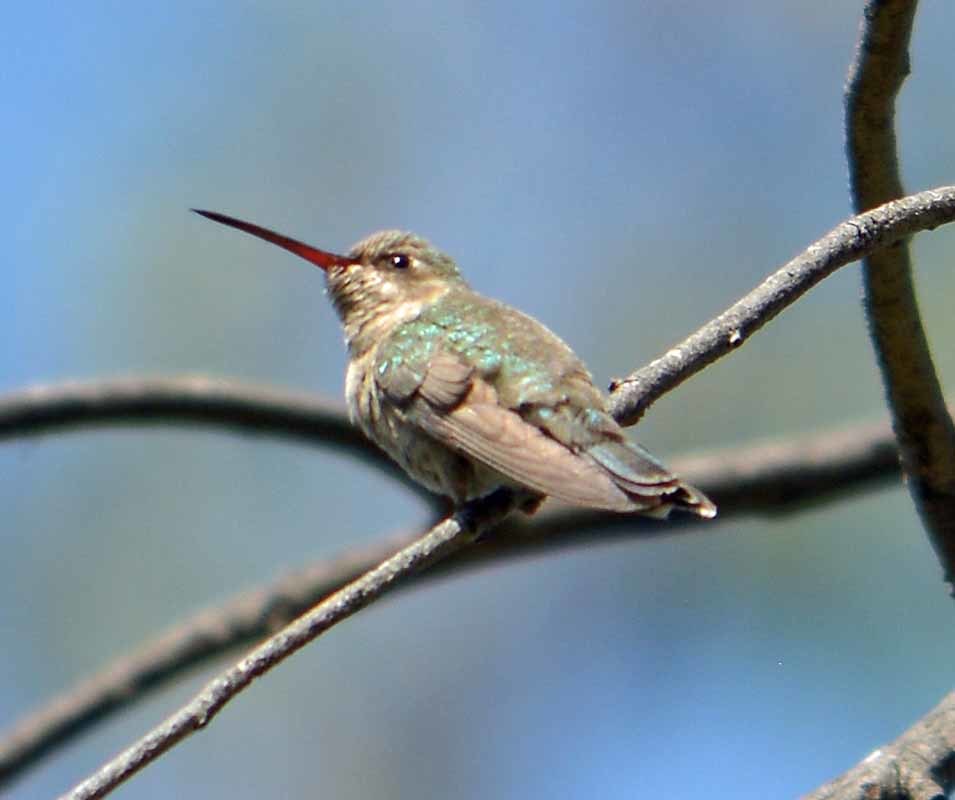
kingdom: Animalia
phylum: Chordata
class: Aves
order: Apodiformes
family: Trochilidae
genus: Cynanthus
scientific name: Cynanthus latirostris
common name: Broad-billed hummingbird
